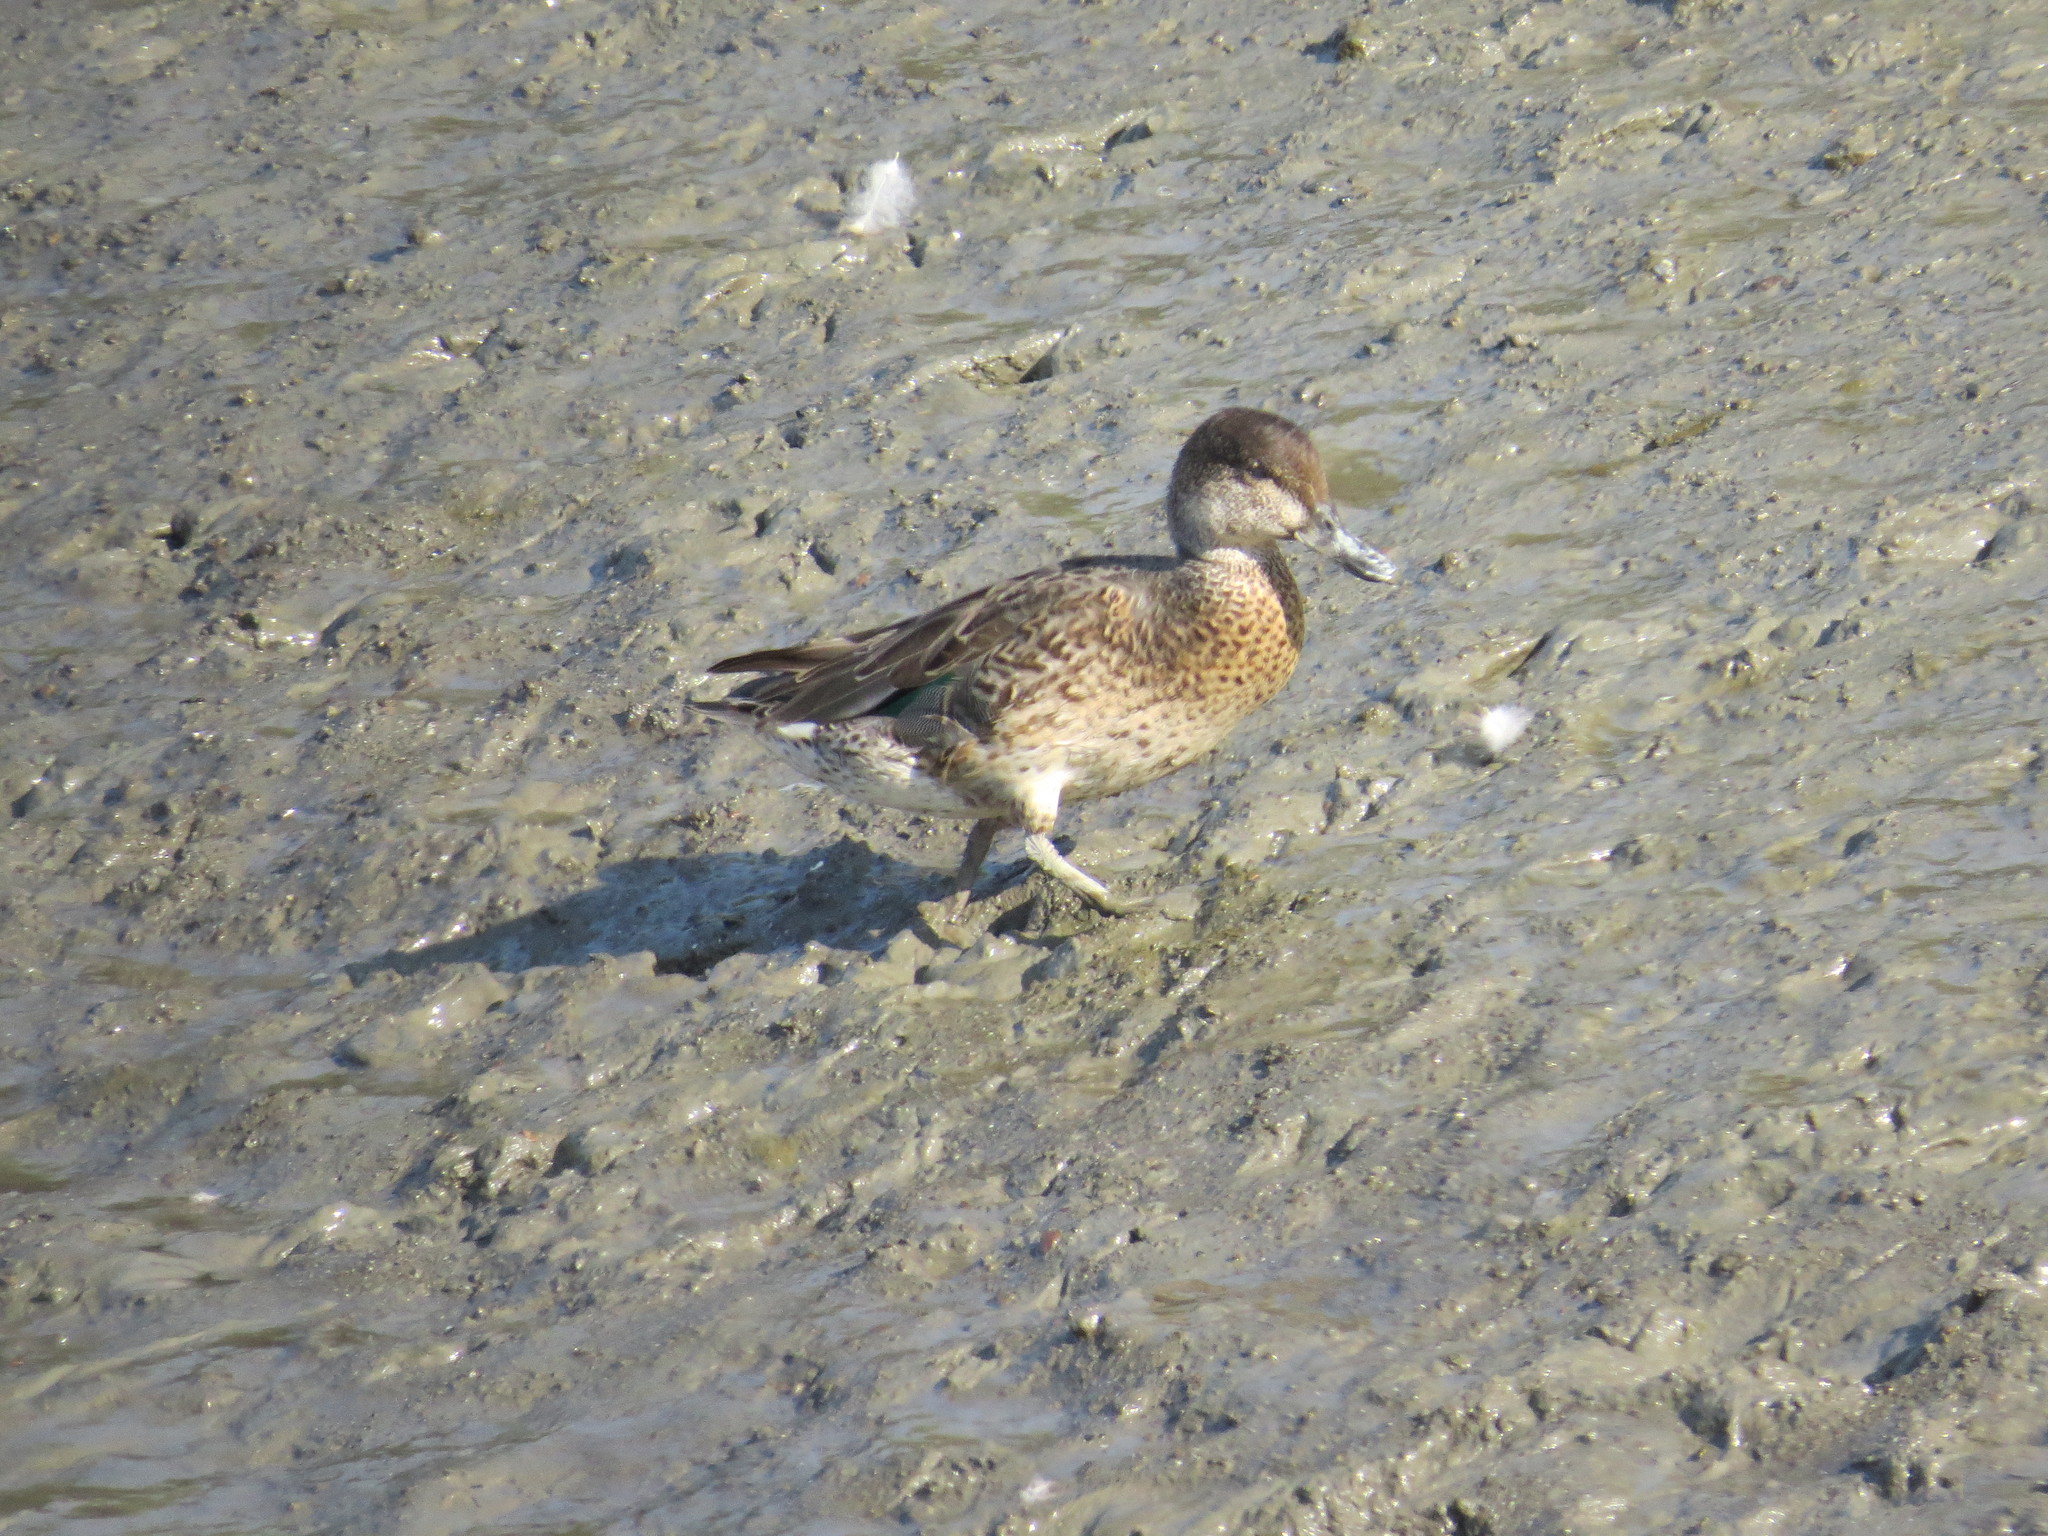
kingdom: Animalia
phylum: Chordata
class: Aves
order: Anseriformes
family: Anatidae
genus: Anas
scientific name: Anas crecca
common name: Eurasian teal
